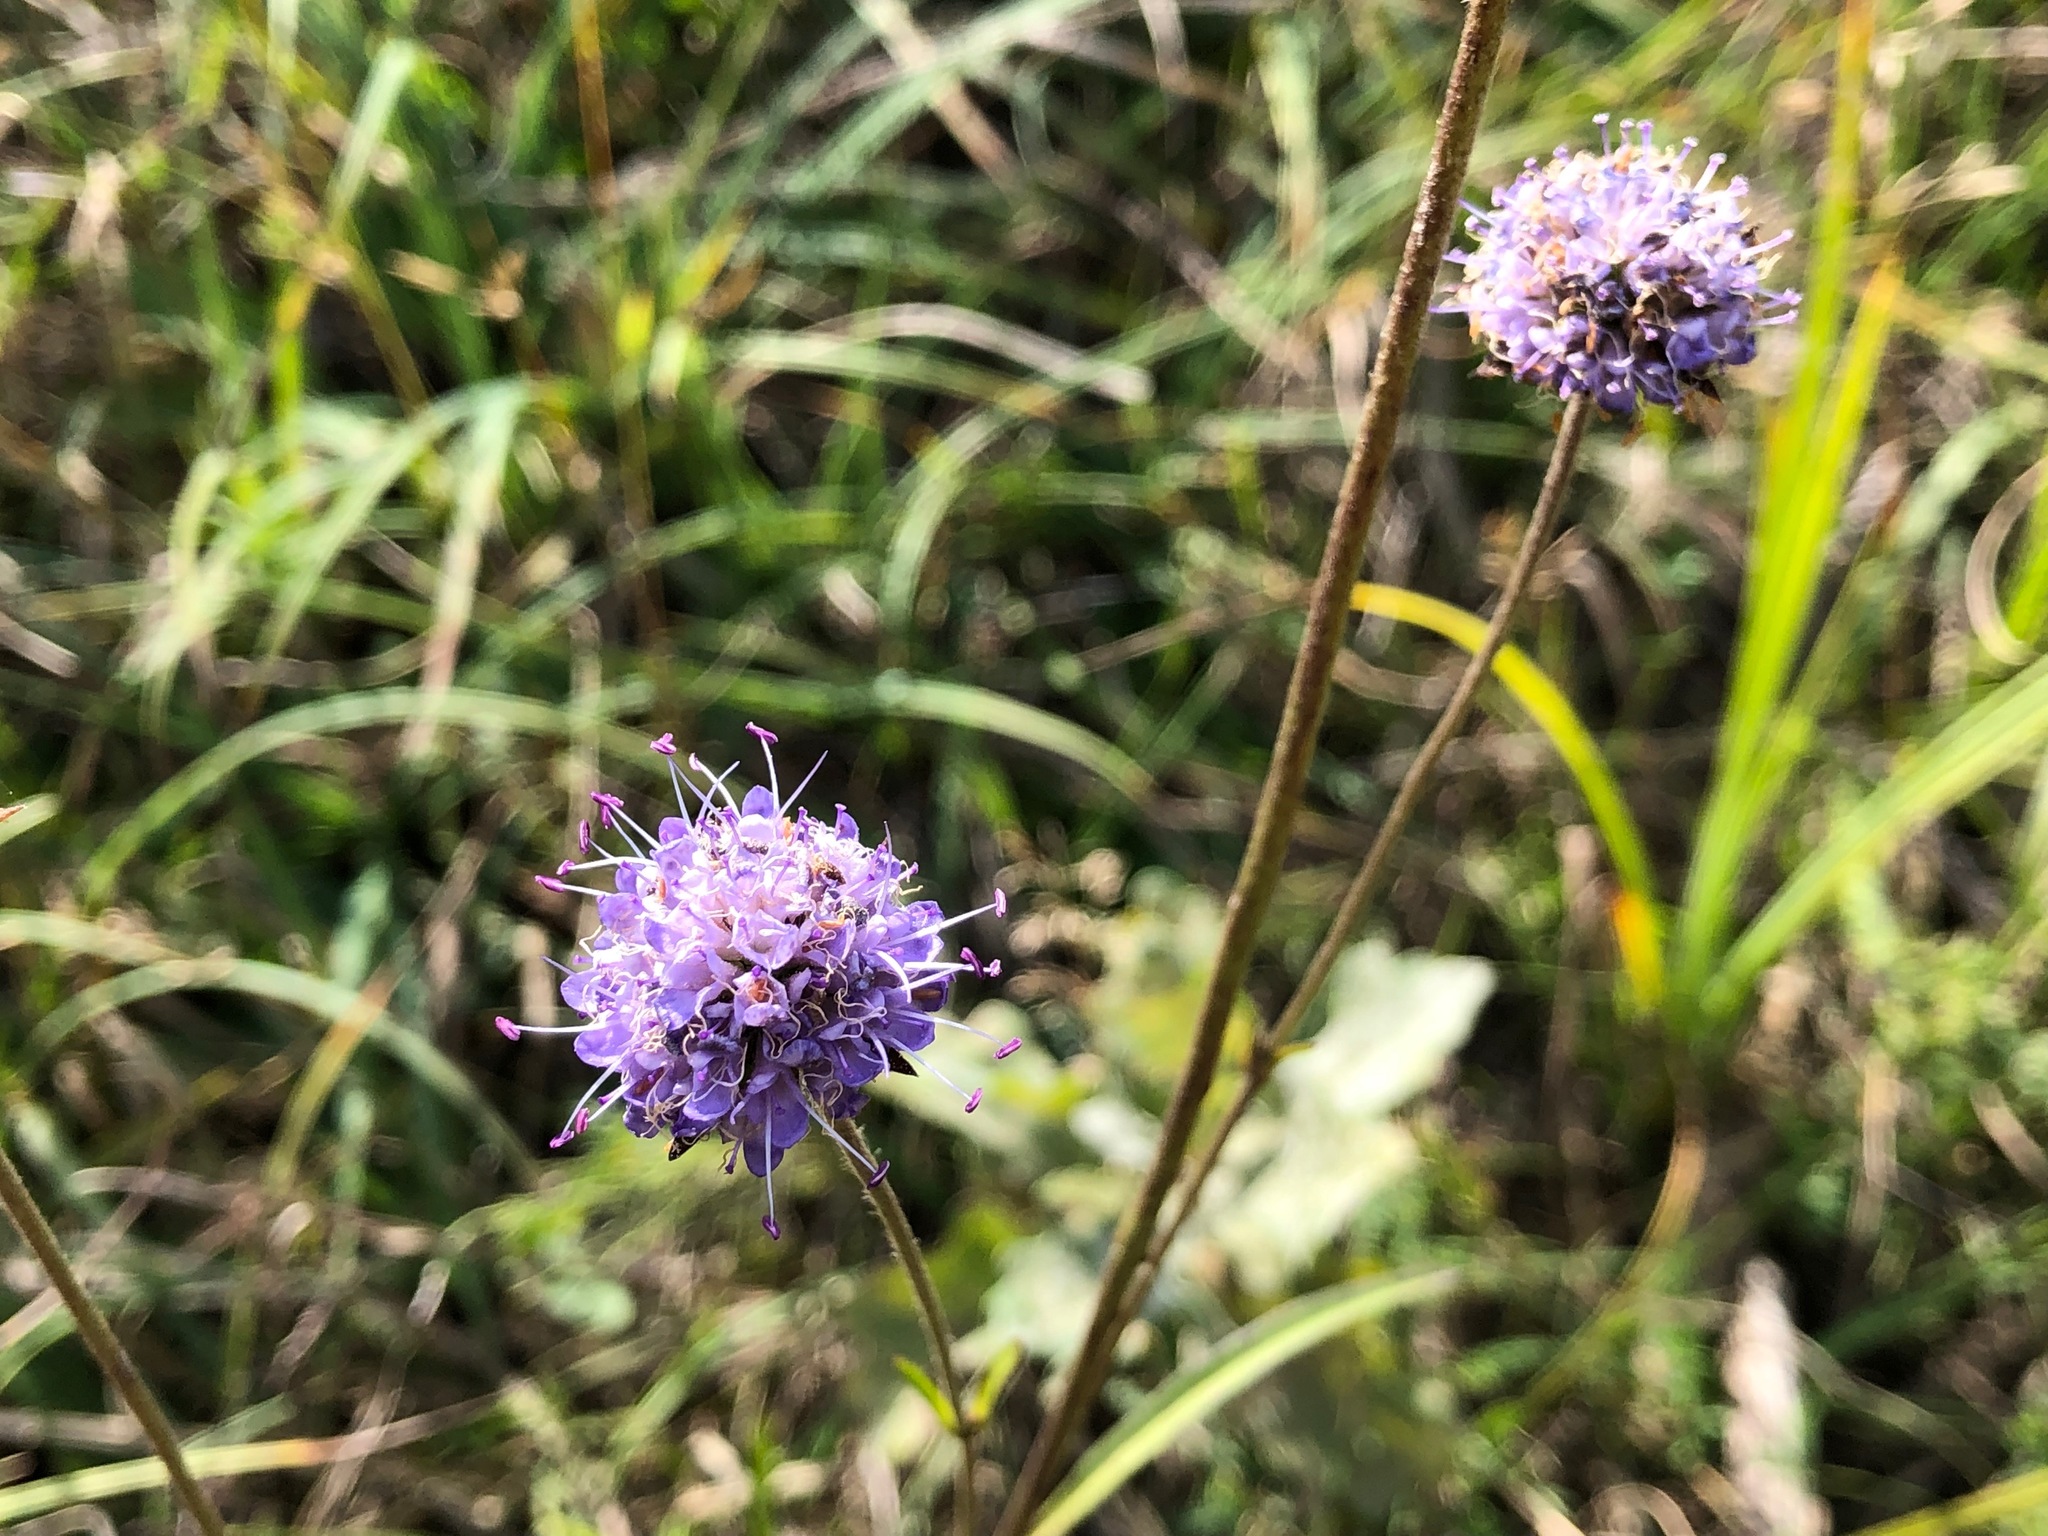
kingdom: Plantae
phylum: Tracheophyta
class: Magnoliopsida
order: Dipsacales
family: Caprifoliaceae
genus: Succisa
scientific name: Succisa pratensis
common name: Devil's-bit
